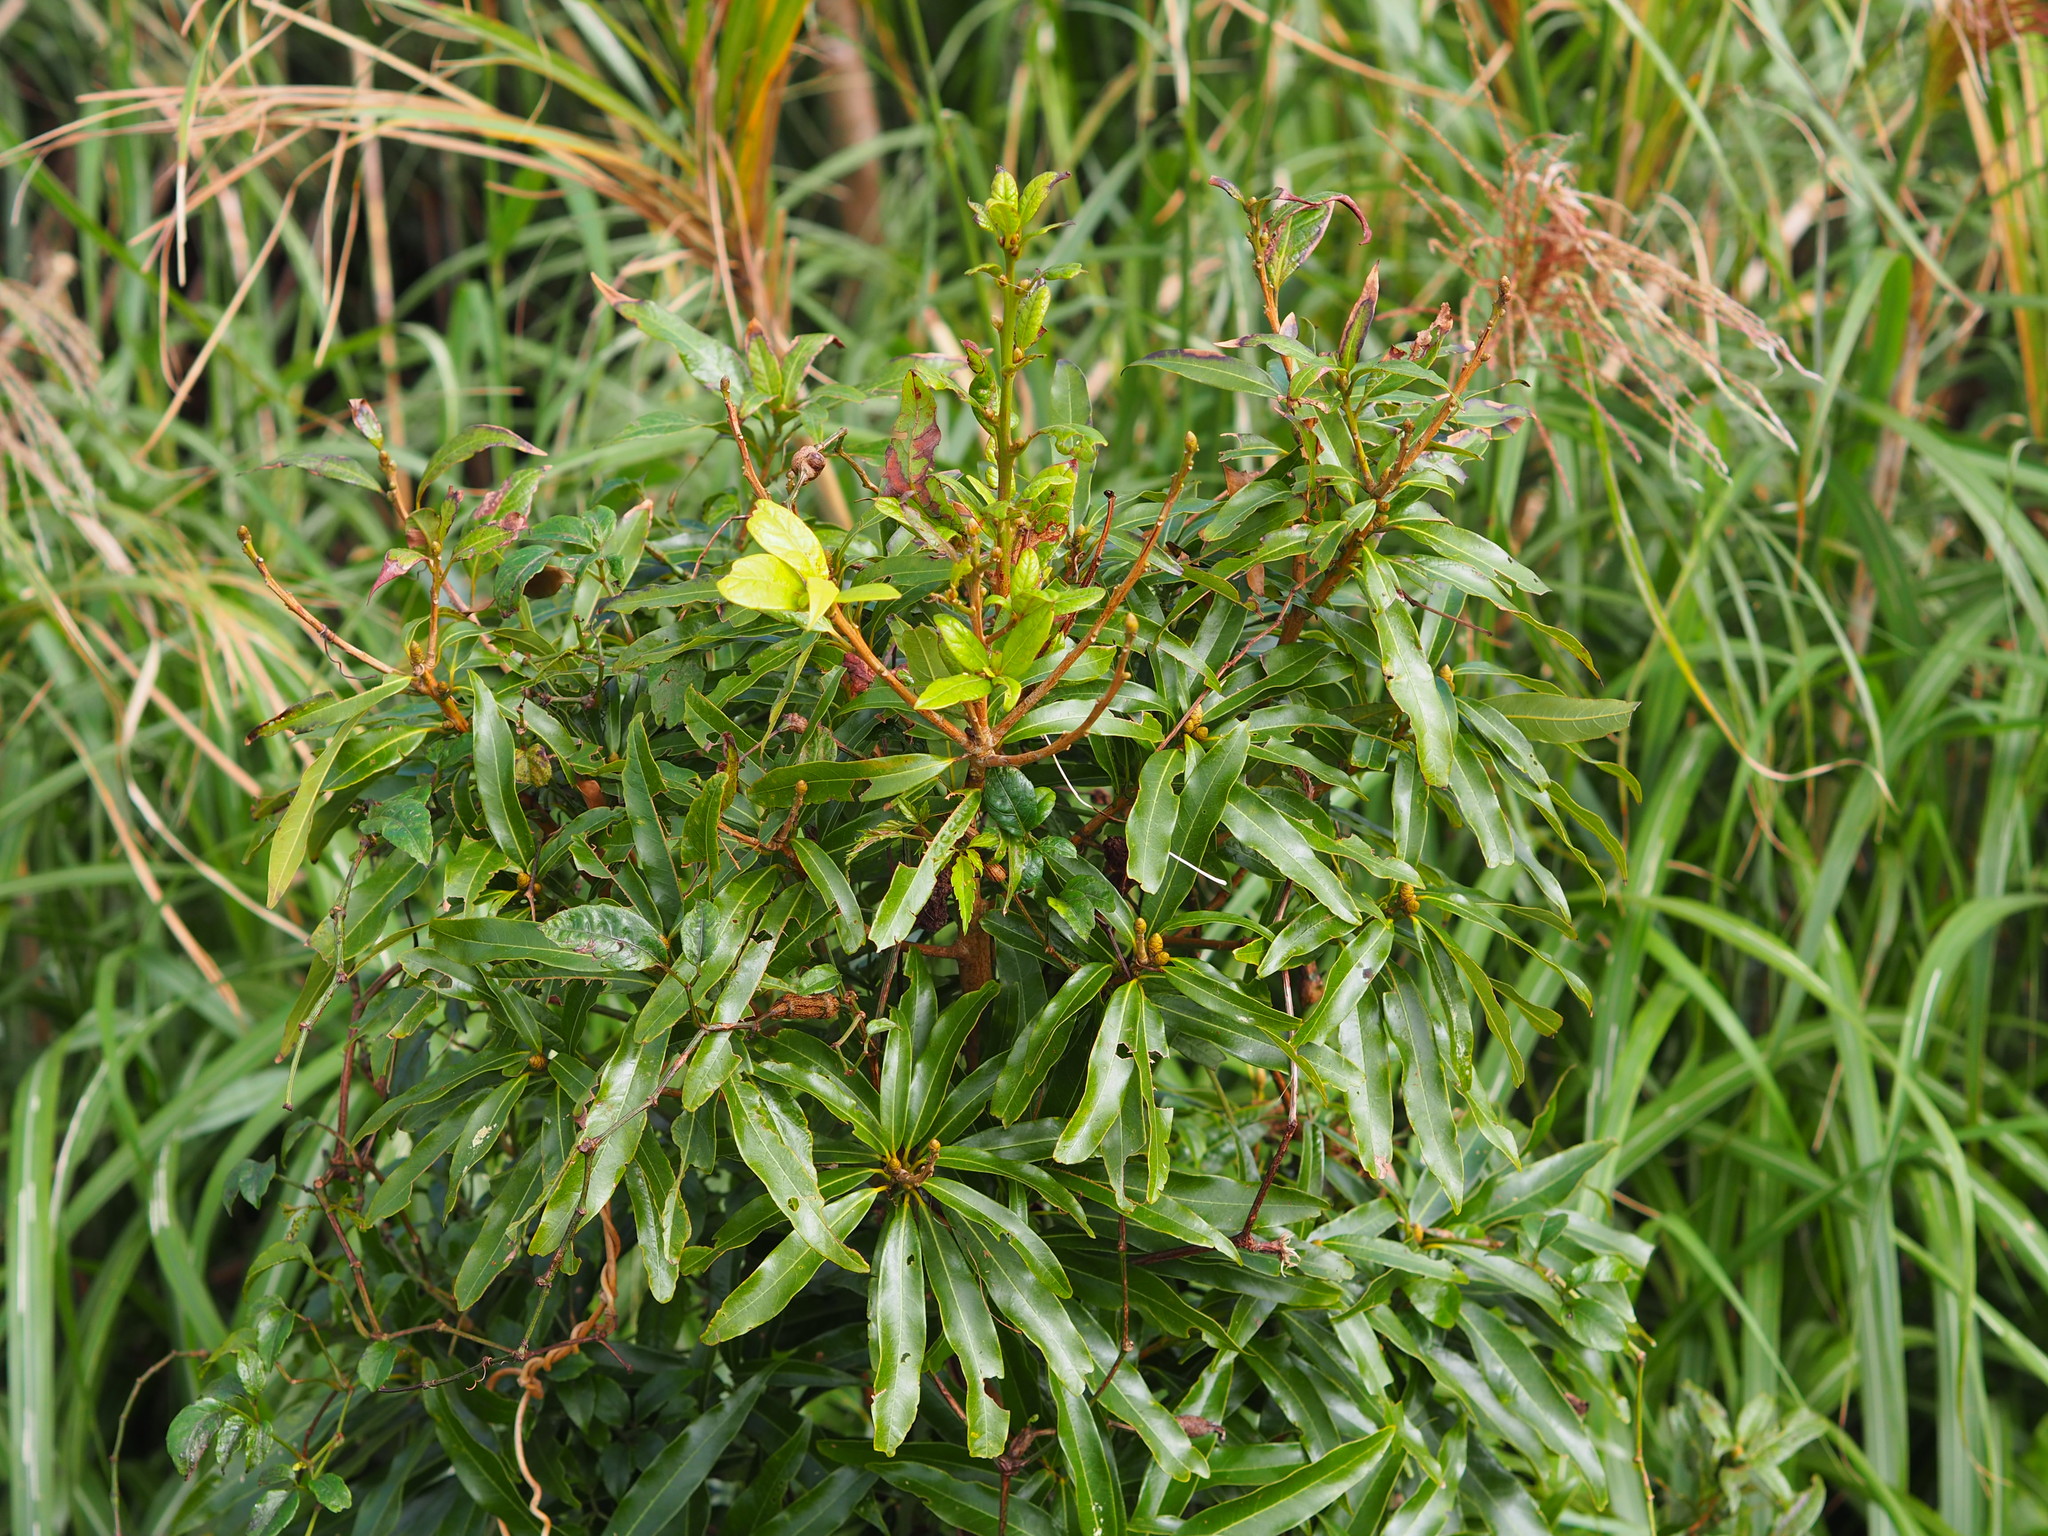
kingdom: Plantae
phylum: Tracheophyta
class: Magnoliopsida
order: Laurales
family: Lauraceae
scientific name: Lauraceae
